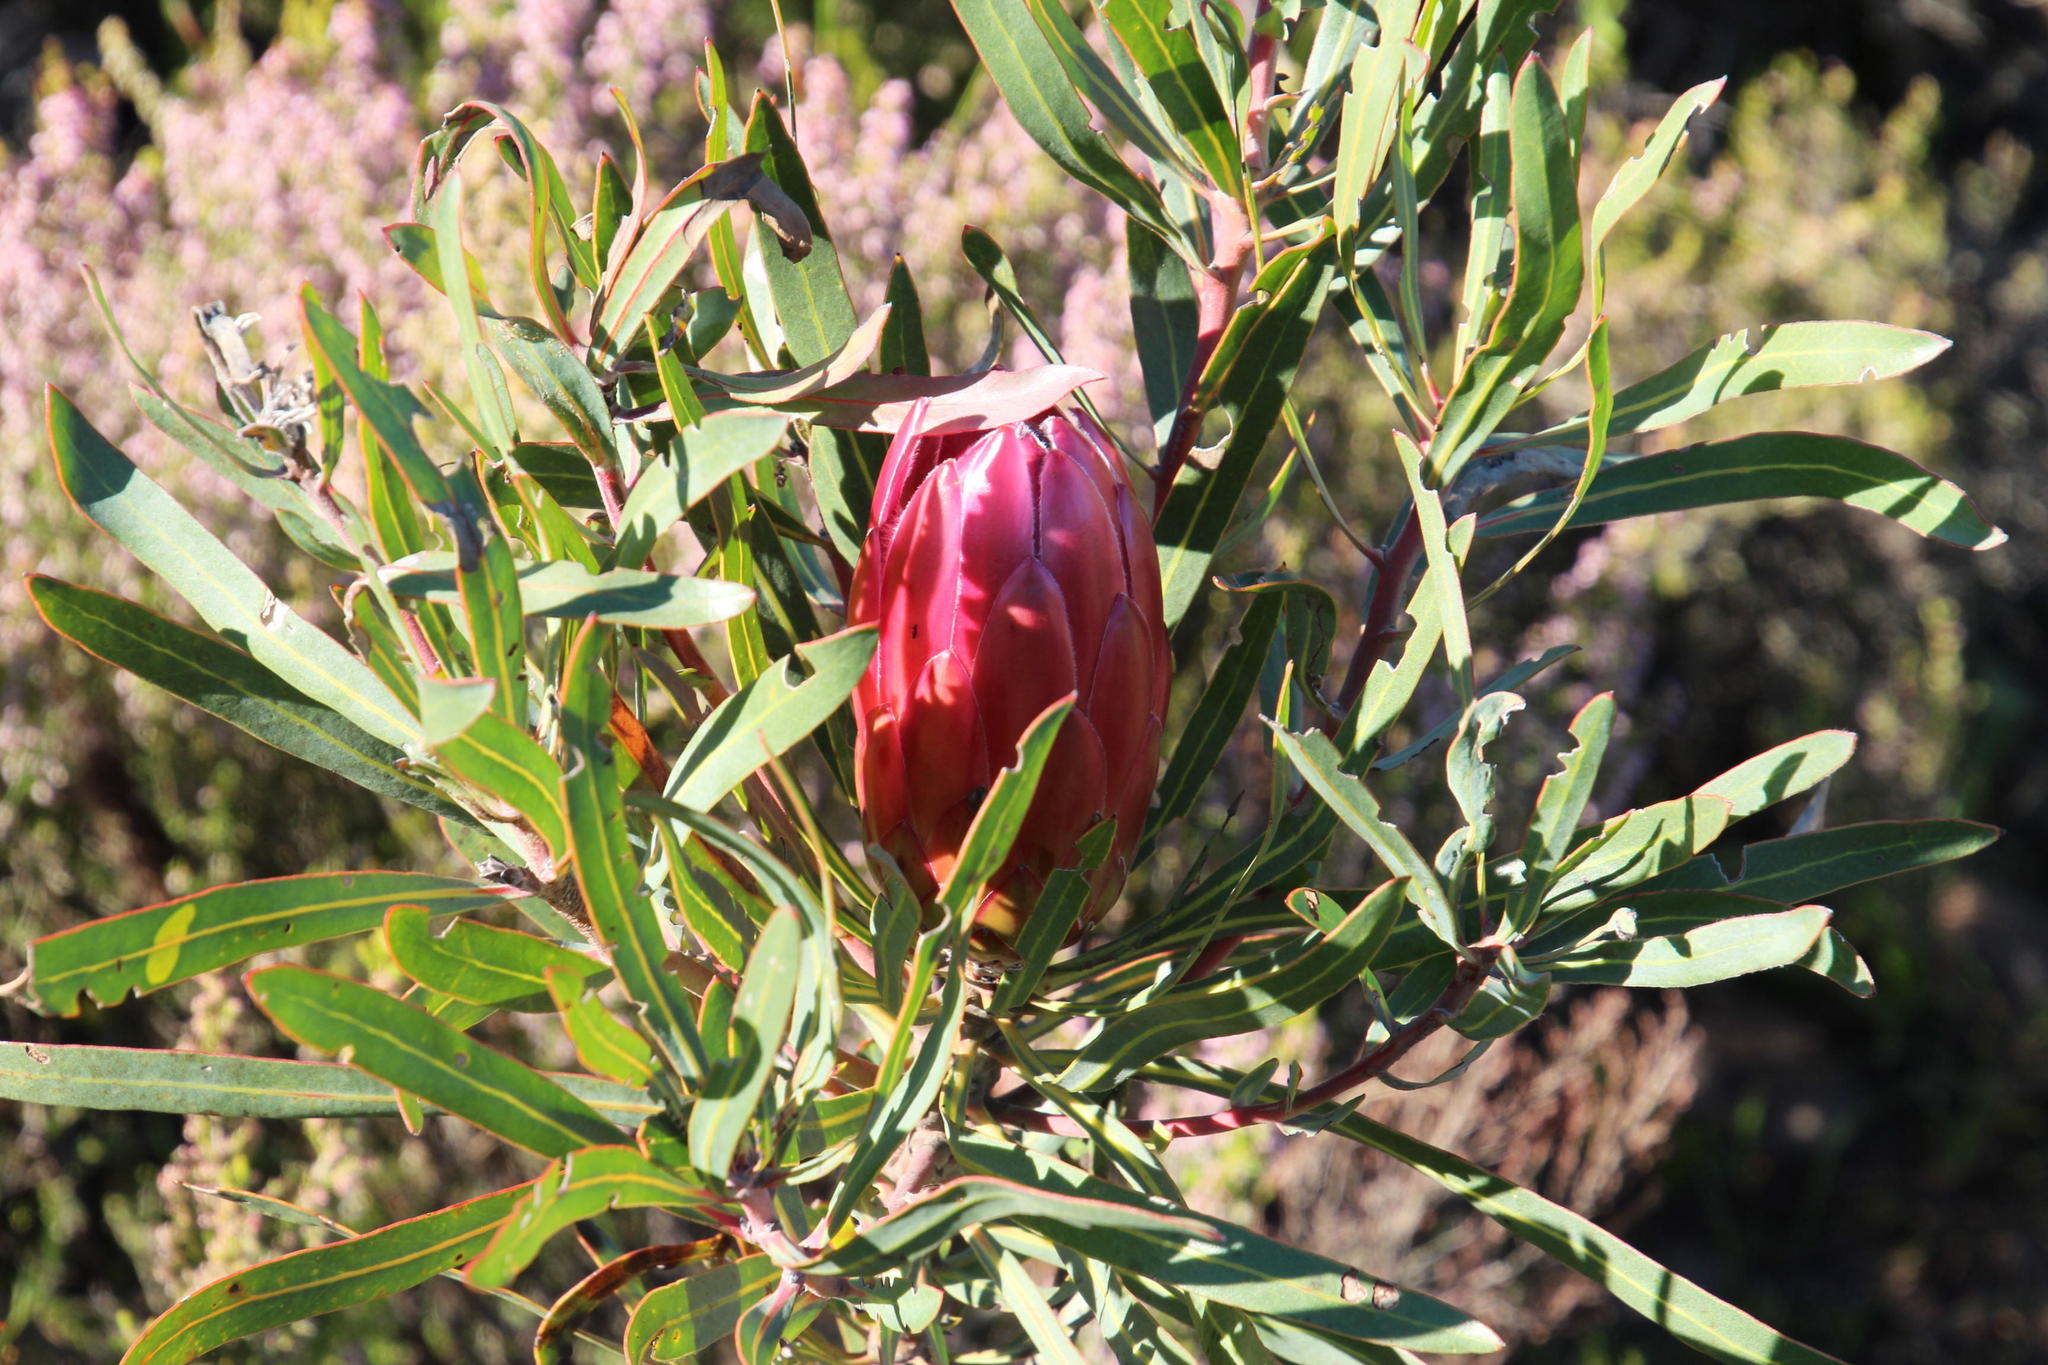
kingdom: Plantae
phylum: Tracheophyta
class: Magnoliopsida
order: Proteales
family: Proteaceae
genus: Protea
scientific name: Protea burchellii
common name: Burchell's sugarbush
